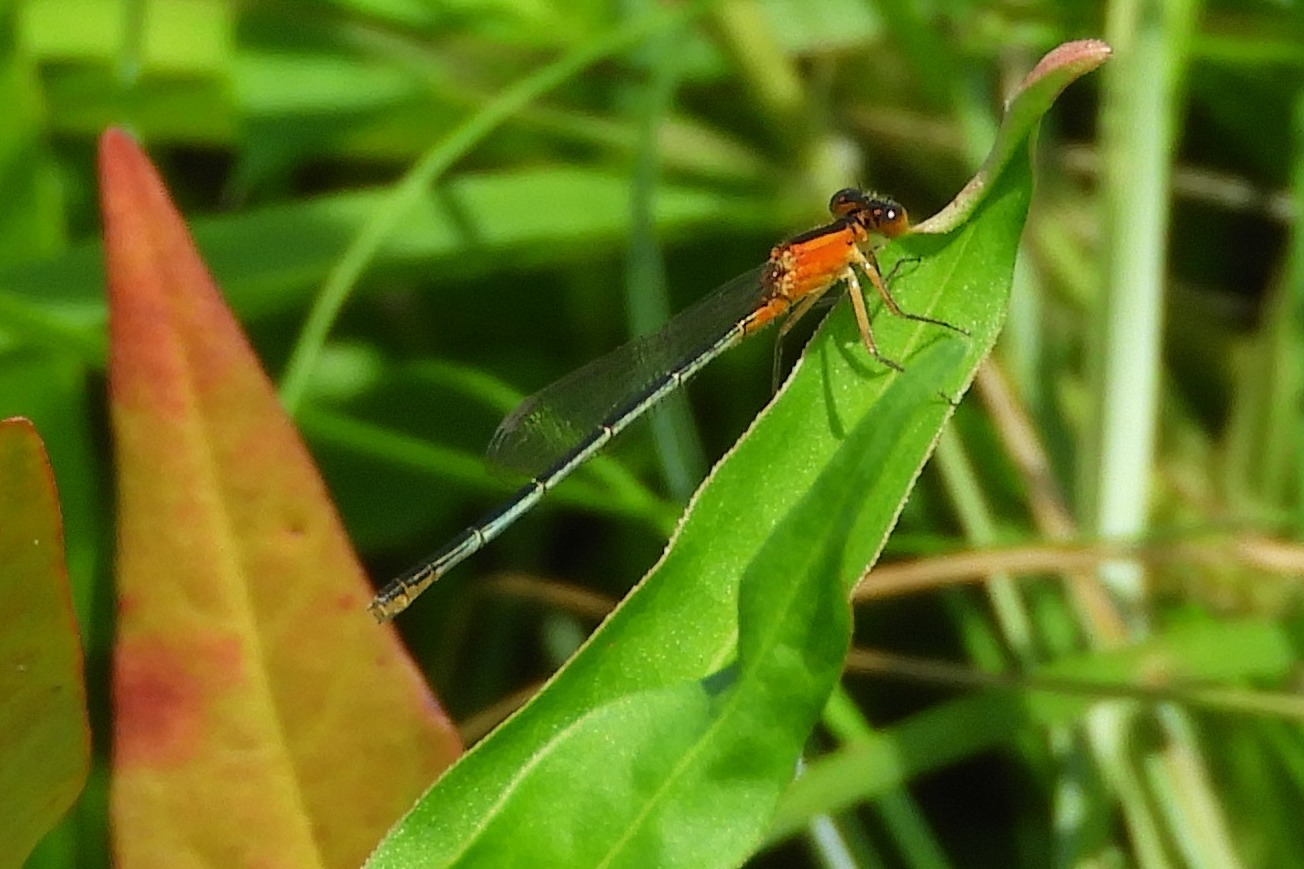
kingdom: Animalia
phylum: Arthropoda
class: Insecta
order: Odonata
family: Coenagrionidae
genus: Ischnura
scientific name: Ischnura ramburii
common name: Rambur's forktail
